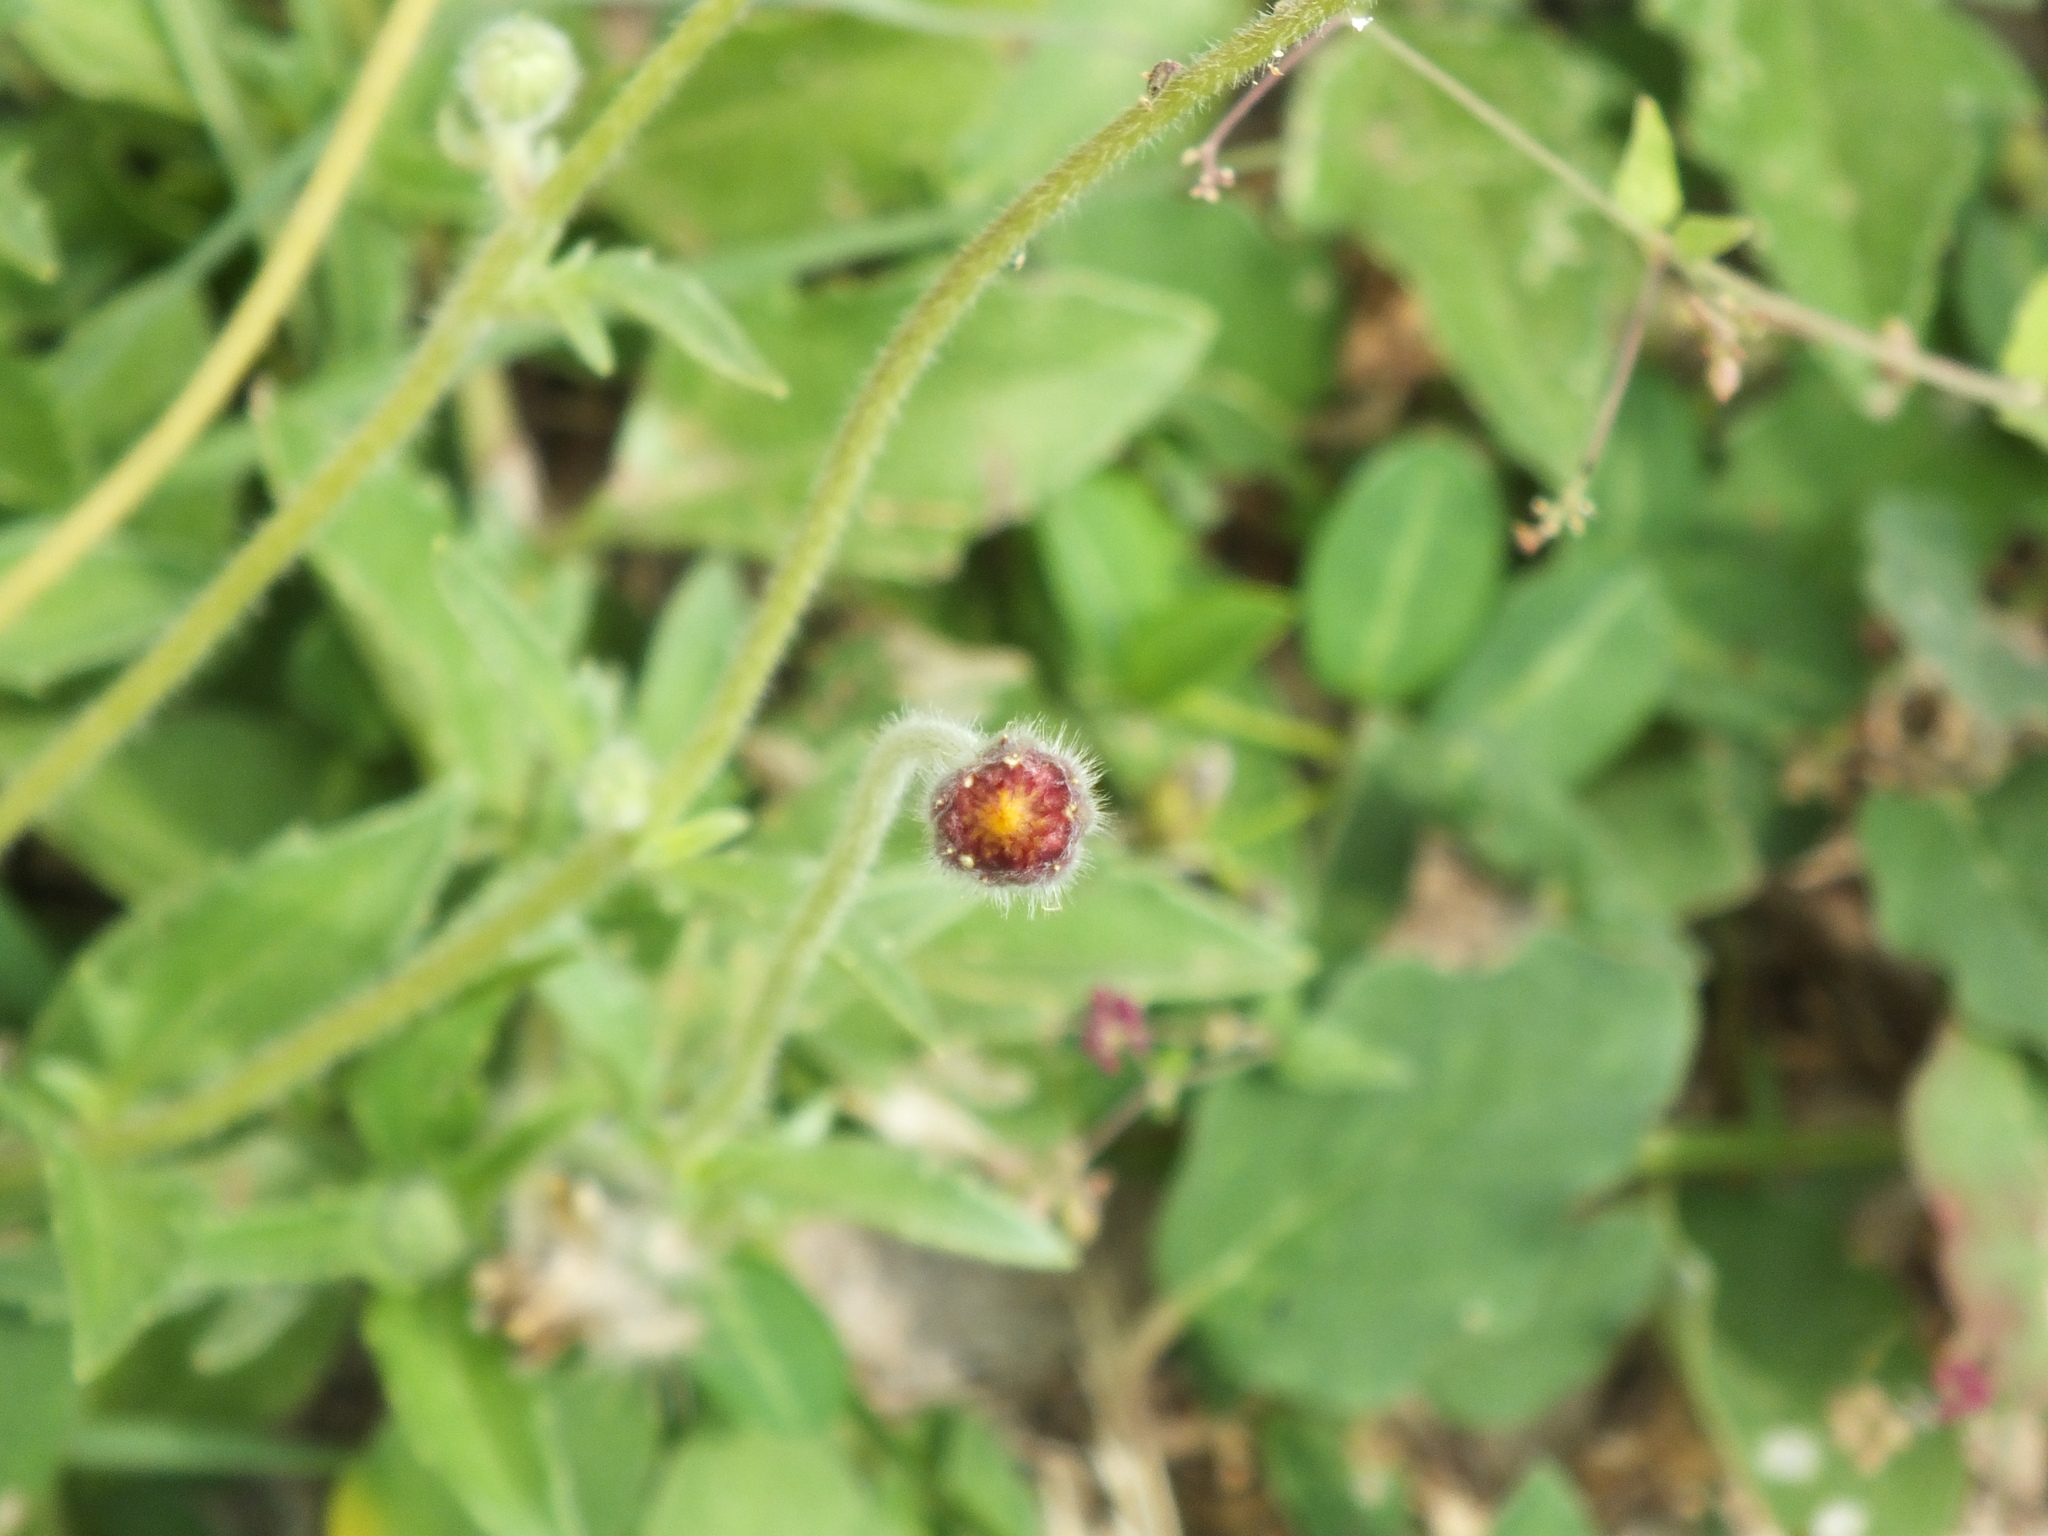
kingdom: Plantae
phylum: Tracheophyta
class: Magnoliopsida
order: Asterales
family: Asteraceae
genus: Tridax
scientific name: Tridax procumbens
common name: Coatbuttons
